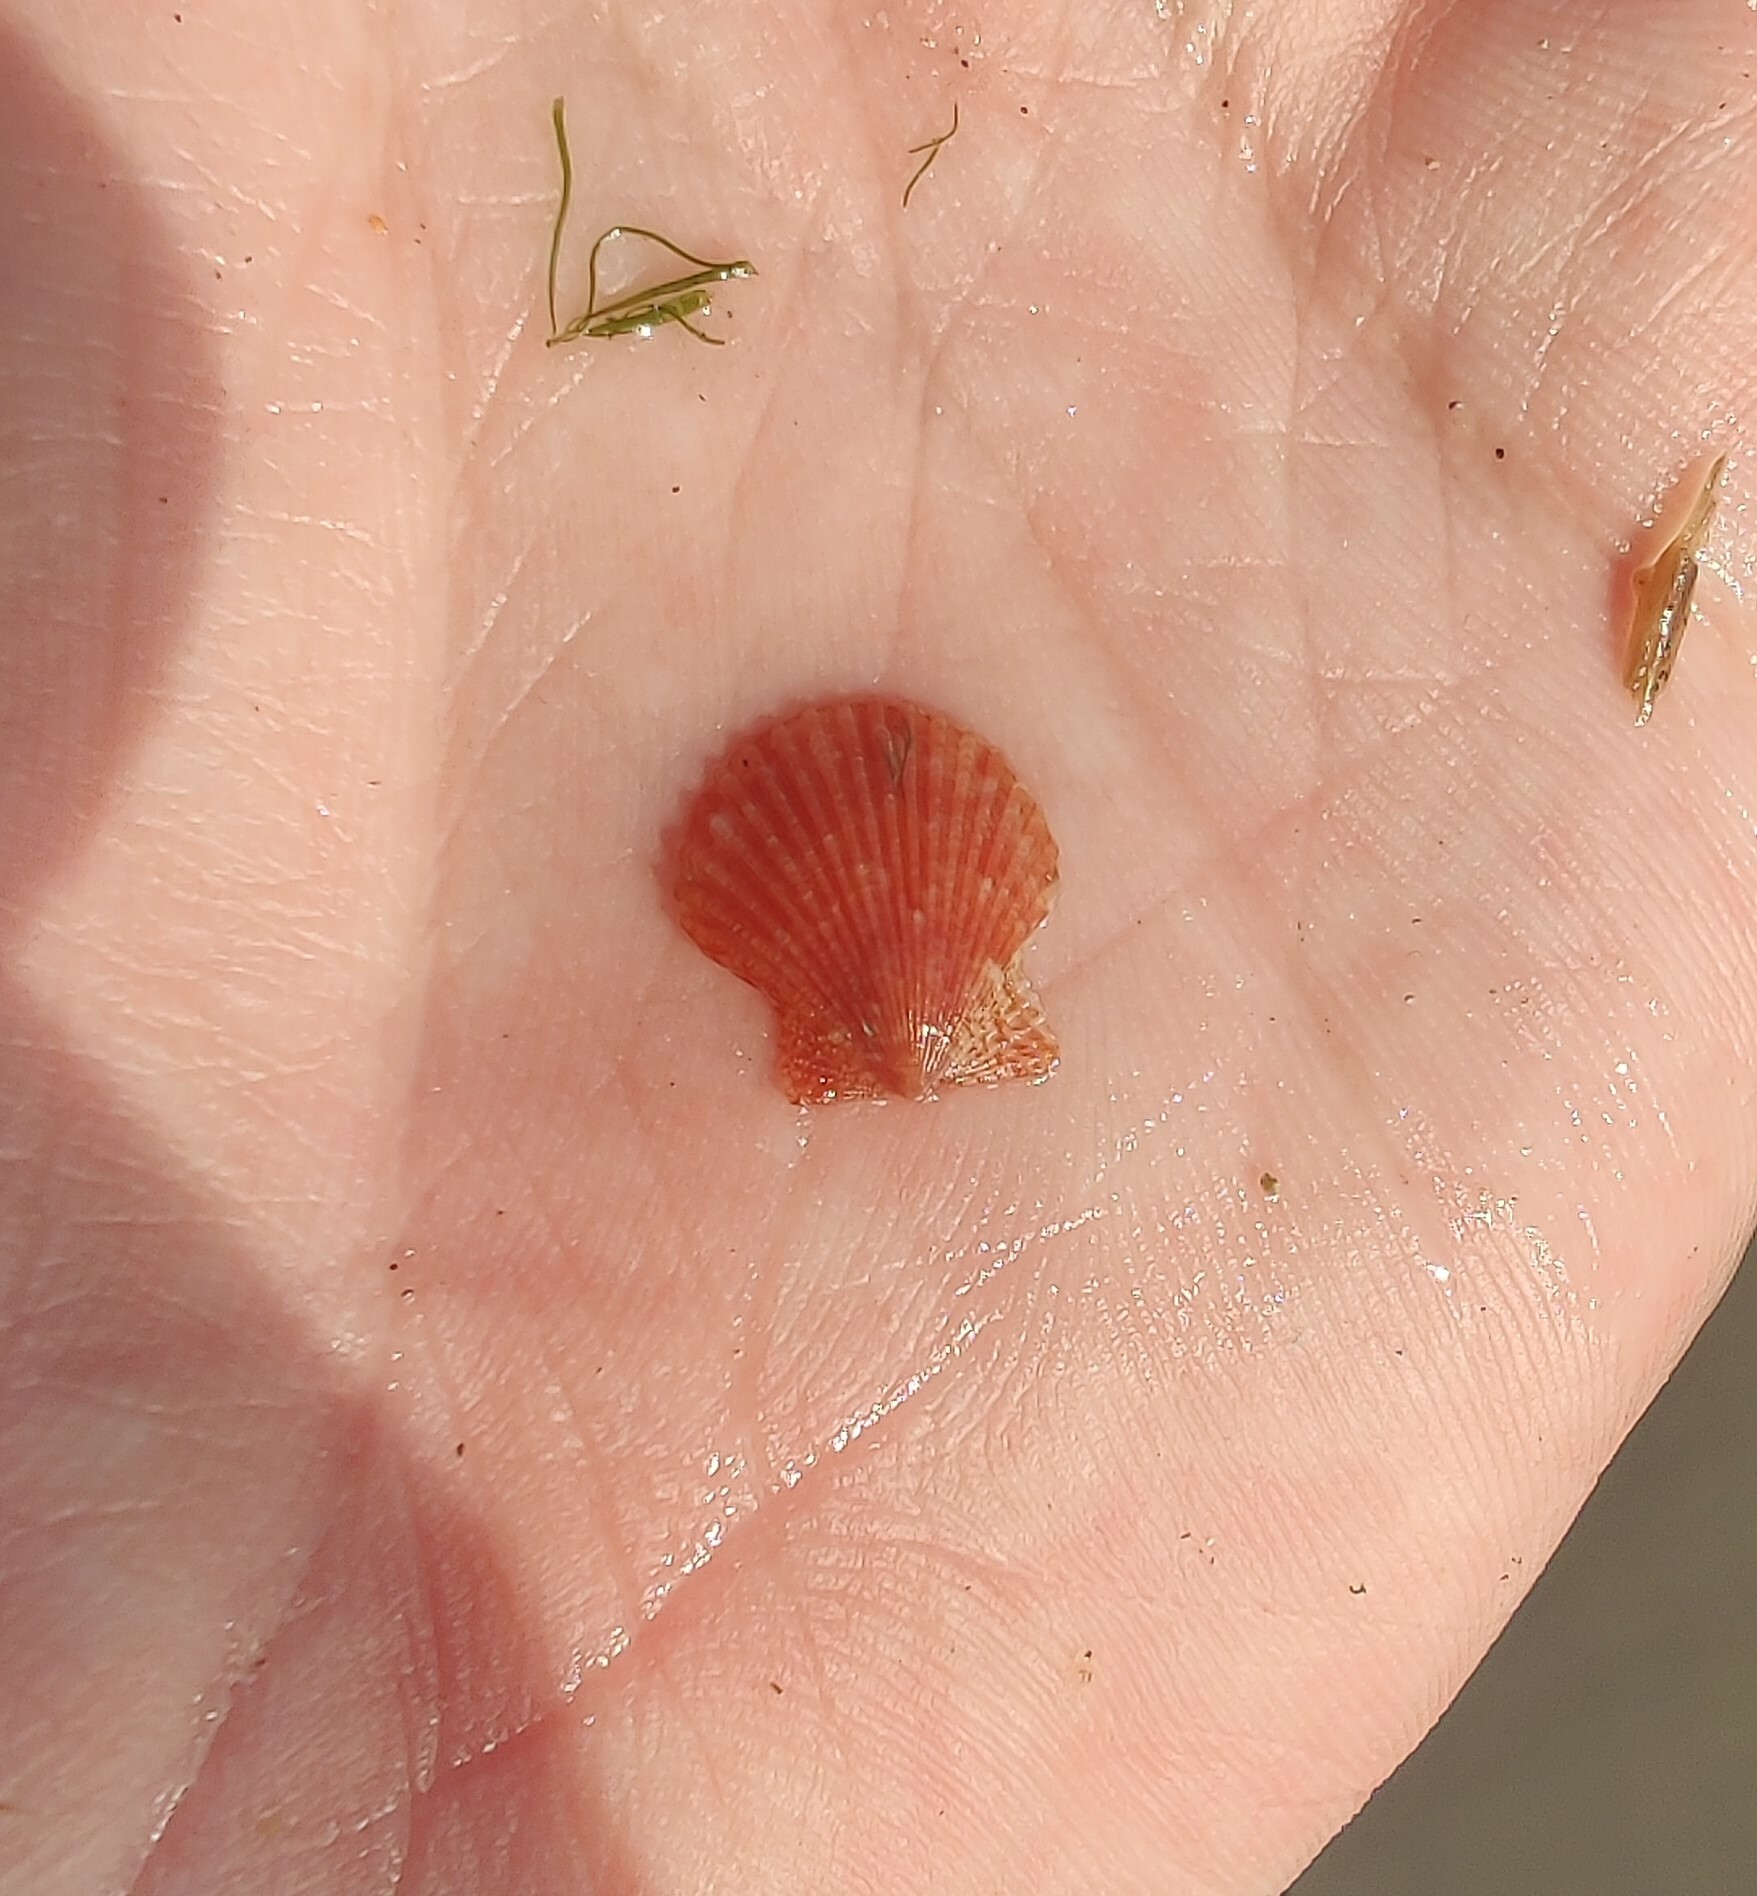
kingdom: Animalia
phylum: Mollusca
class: Bivalvia
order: Pectinida
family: Pectinidae
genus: Aequipecten
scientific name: Aequipecten opercularis
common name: Queen scallop
